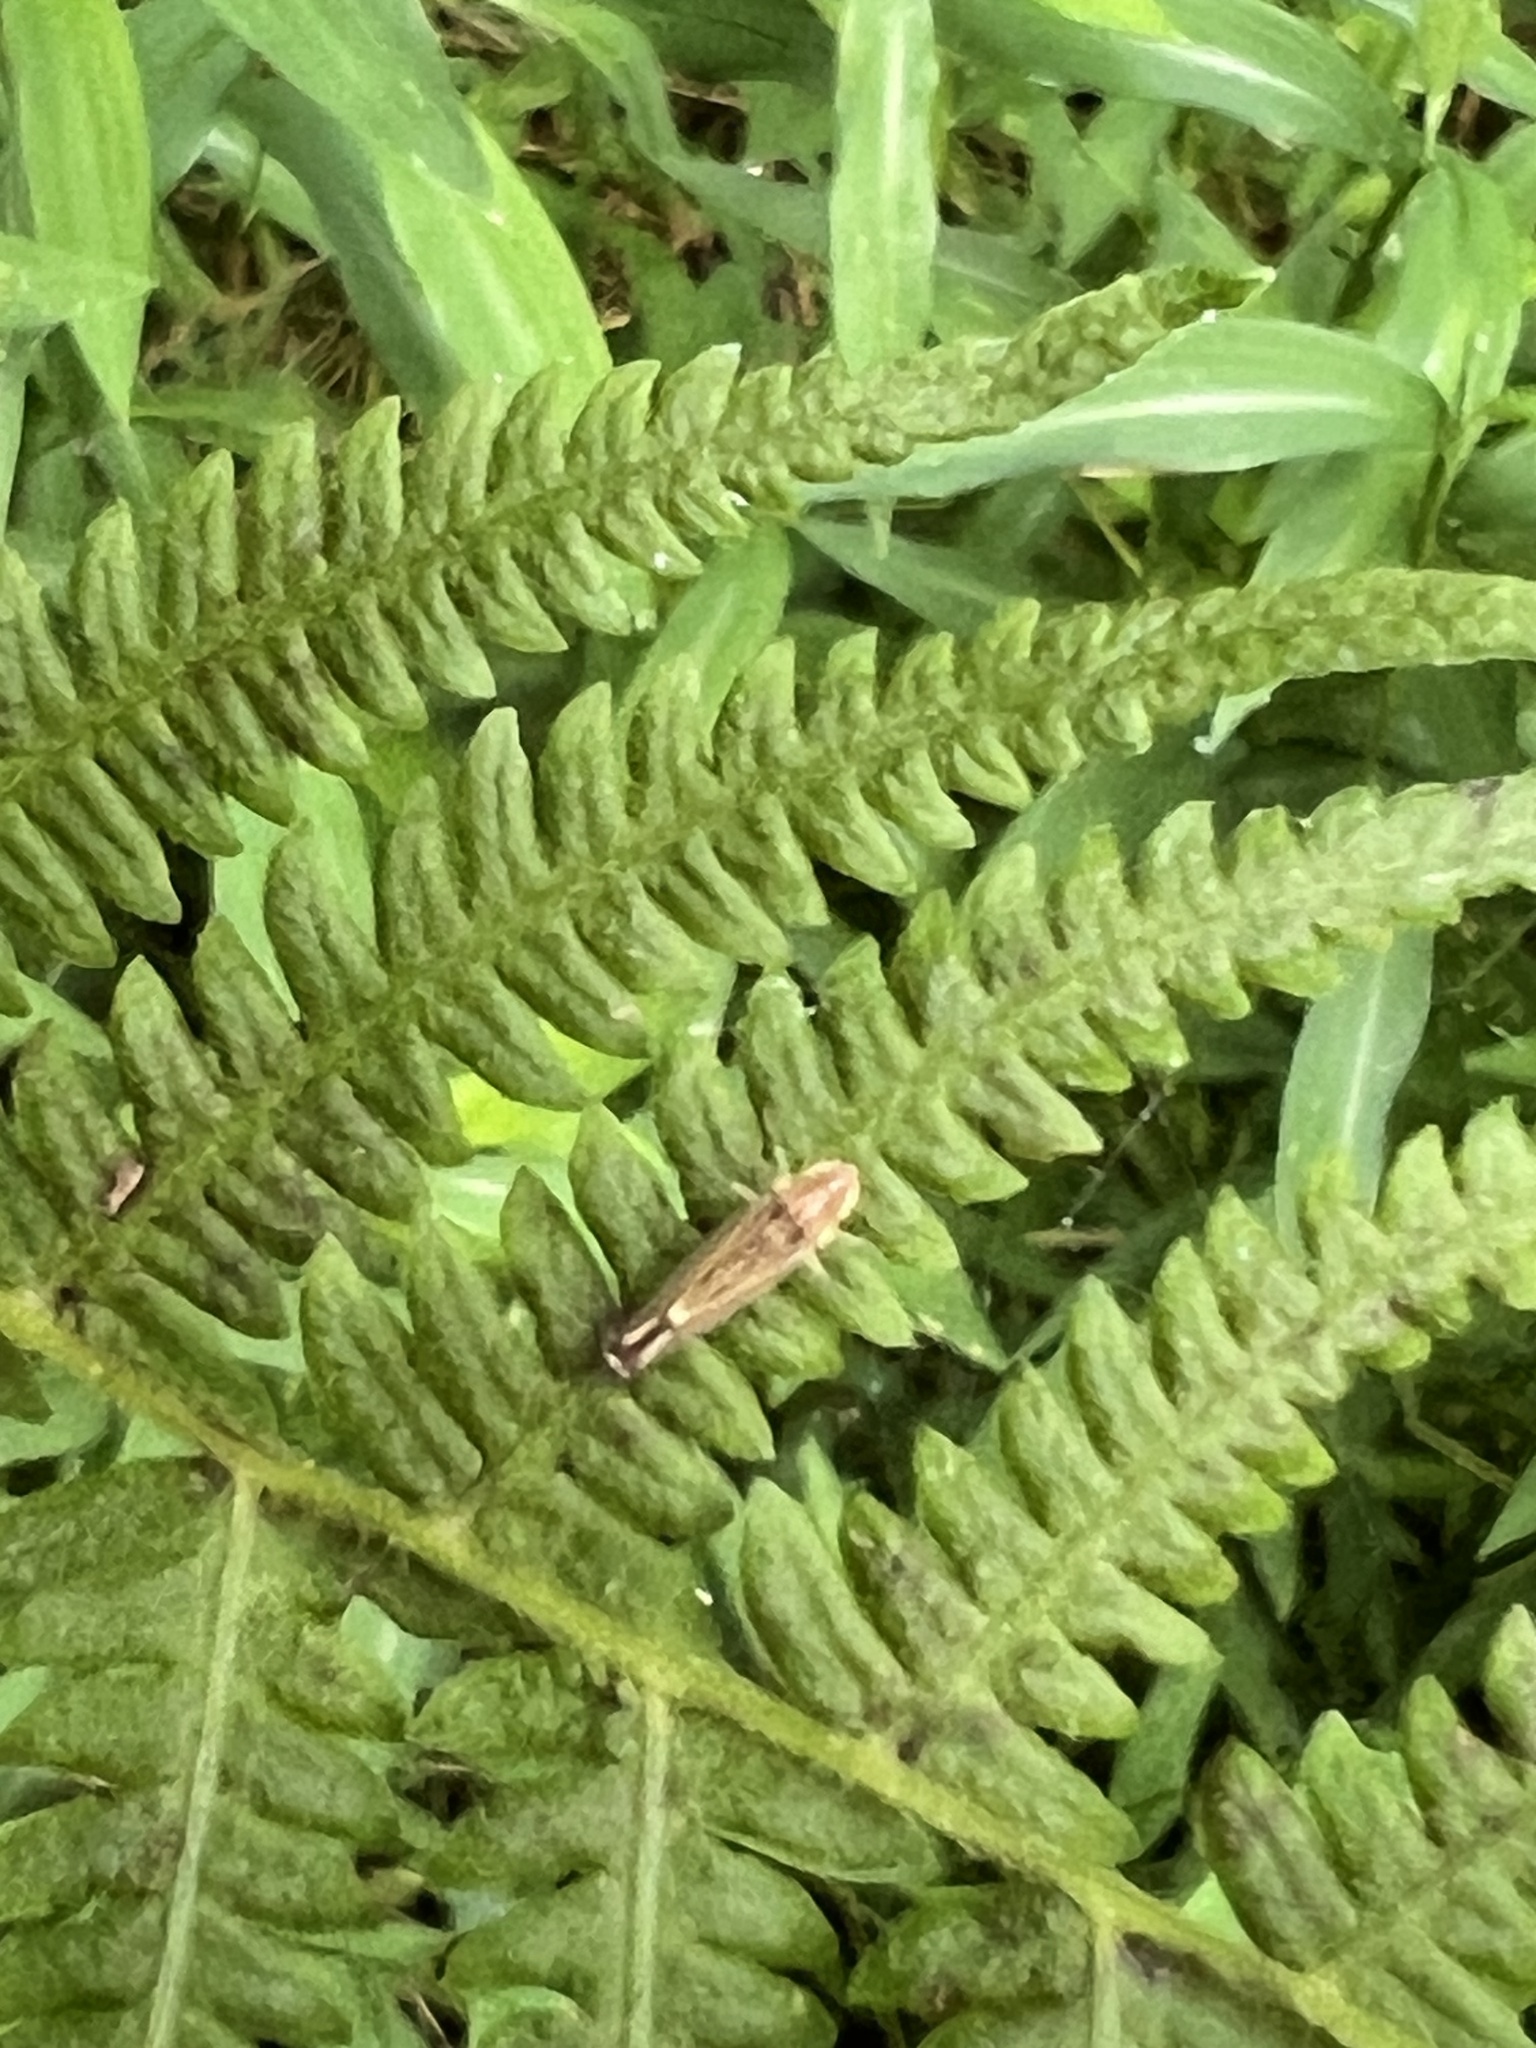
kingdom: Animalia
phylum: Arthropoda
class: Insecta
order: Hemiptera
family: Cicadellidae
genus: Sibovia
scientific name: Sibovia occatoria
